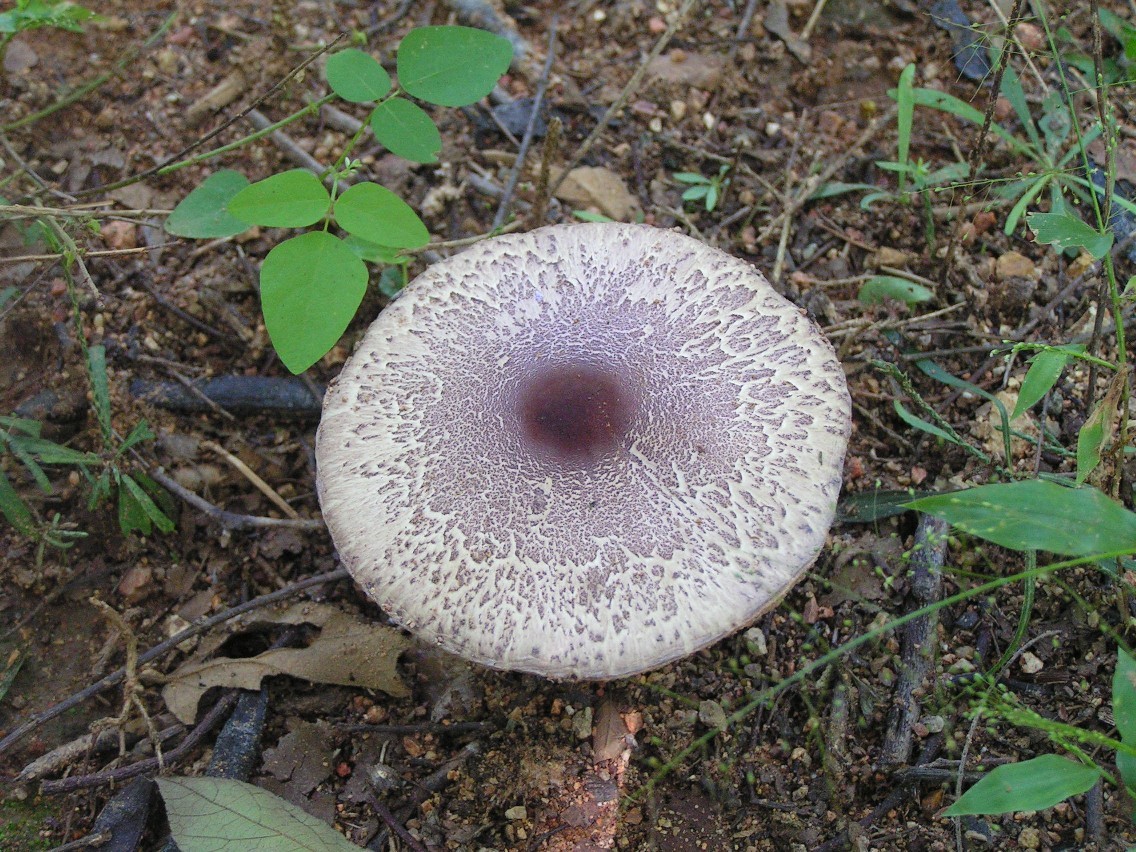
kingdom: Fungi
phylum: Basidiomycota
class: Agaricomycetes
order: Agaricales
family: Agaricaceae
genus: Agaricus
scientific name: Agaricus
